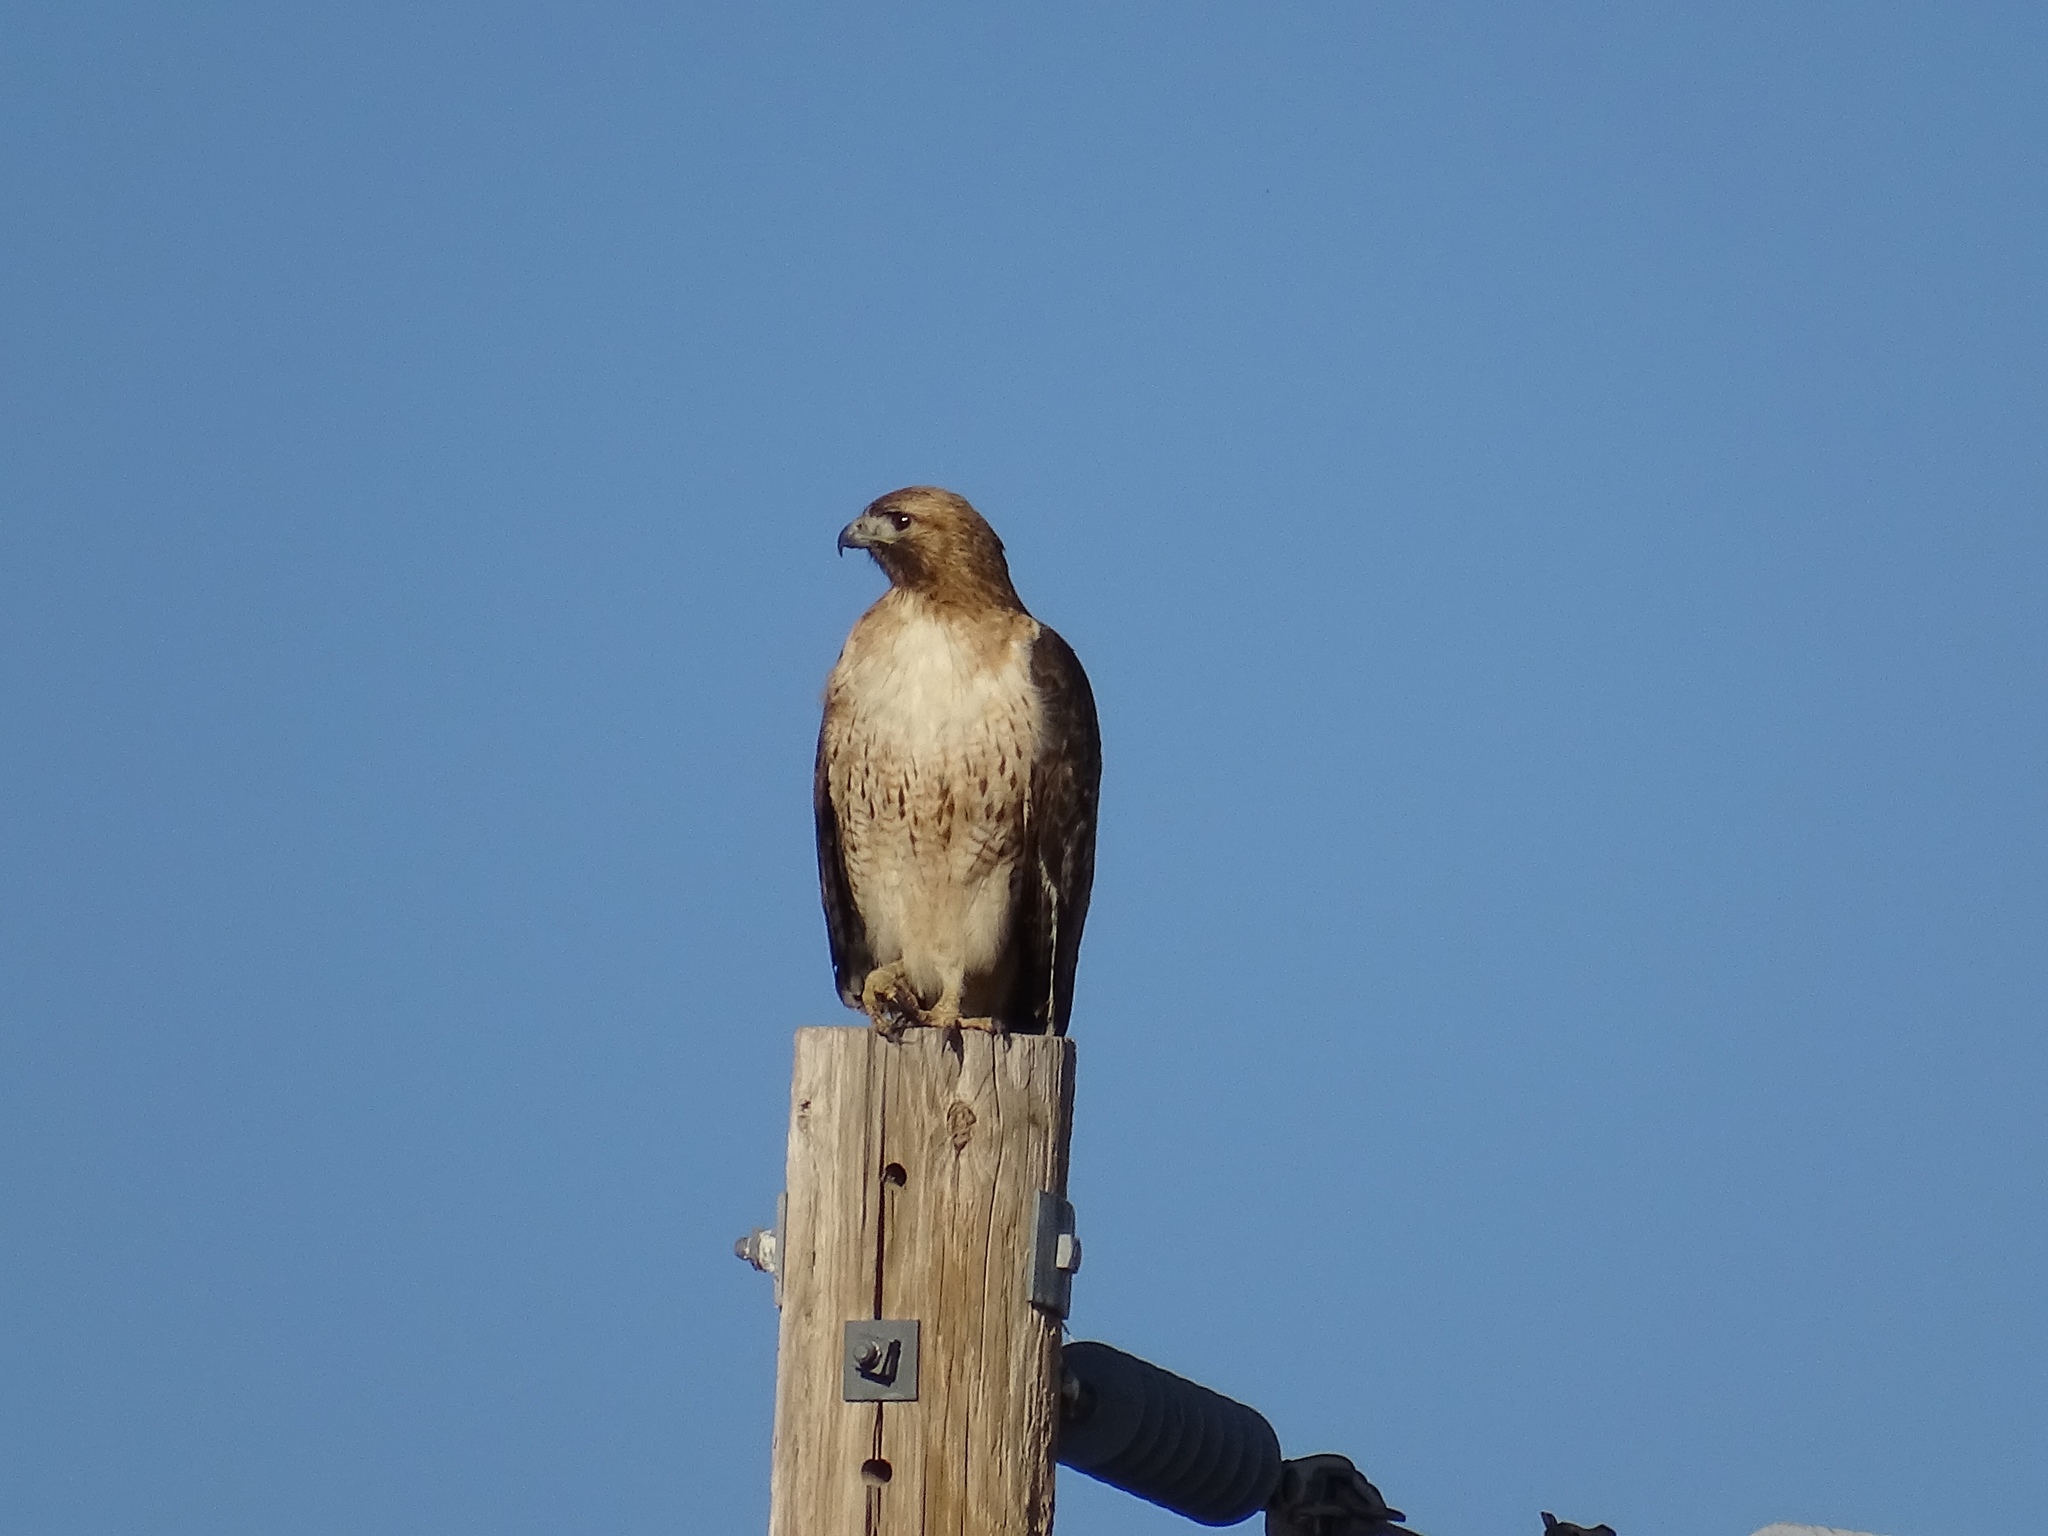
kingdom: Animalia
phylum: Chordata
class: Aves
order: Accipitriformes
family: Accipitridae
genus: Buteo
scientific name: Buteo jamaicensis
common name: Red-tailed hawk
